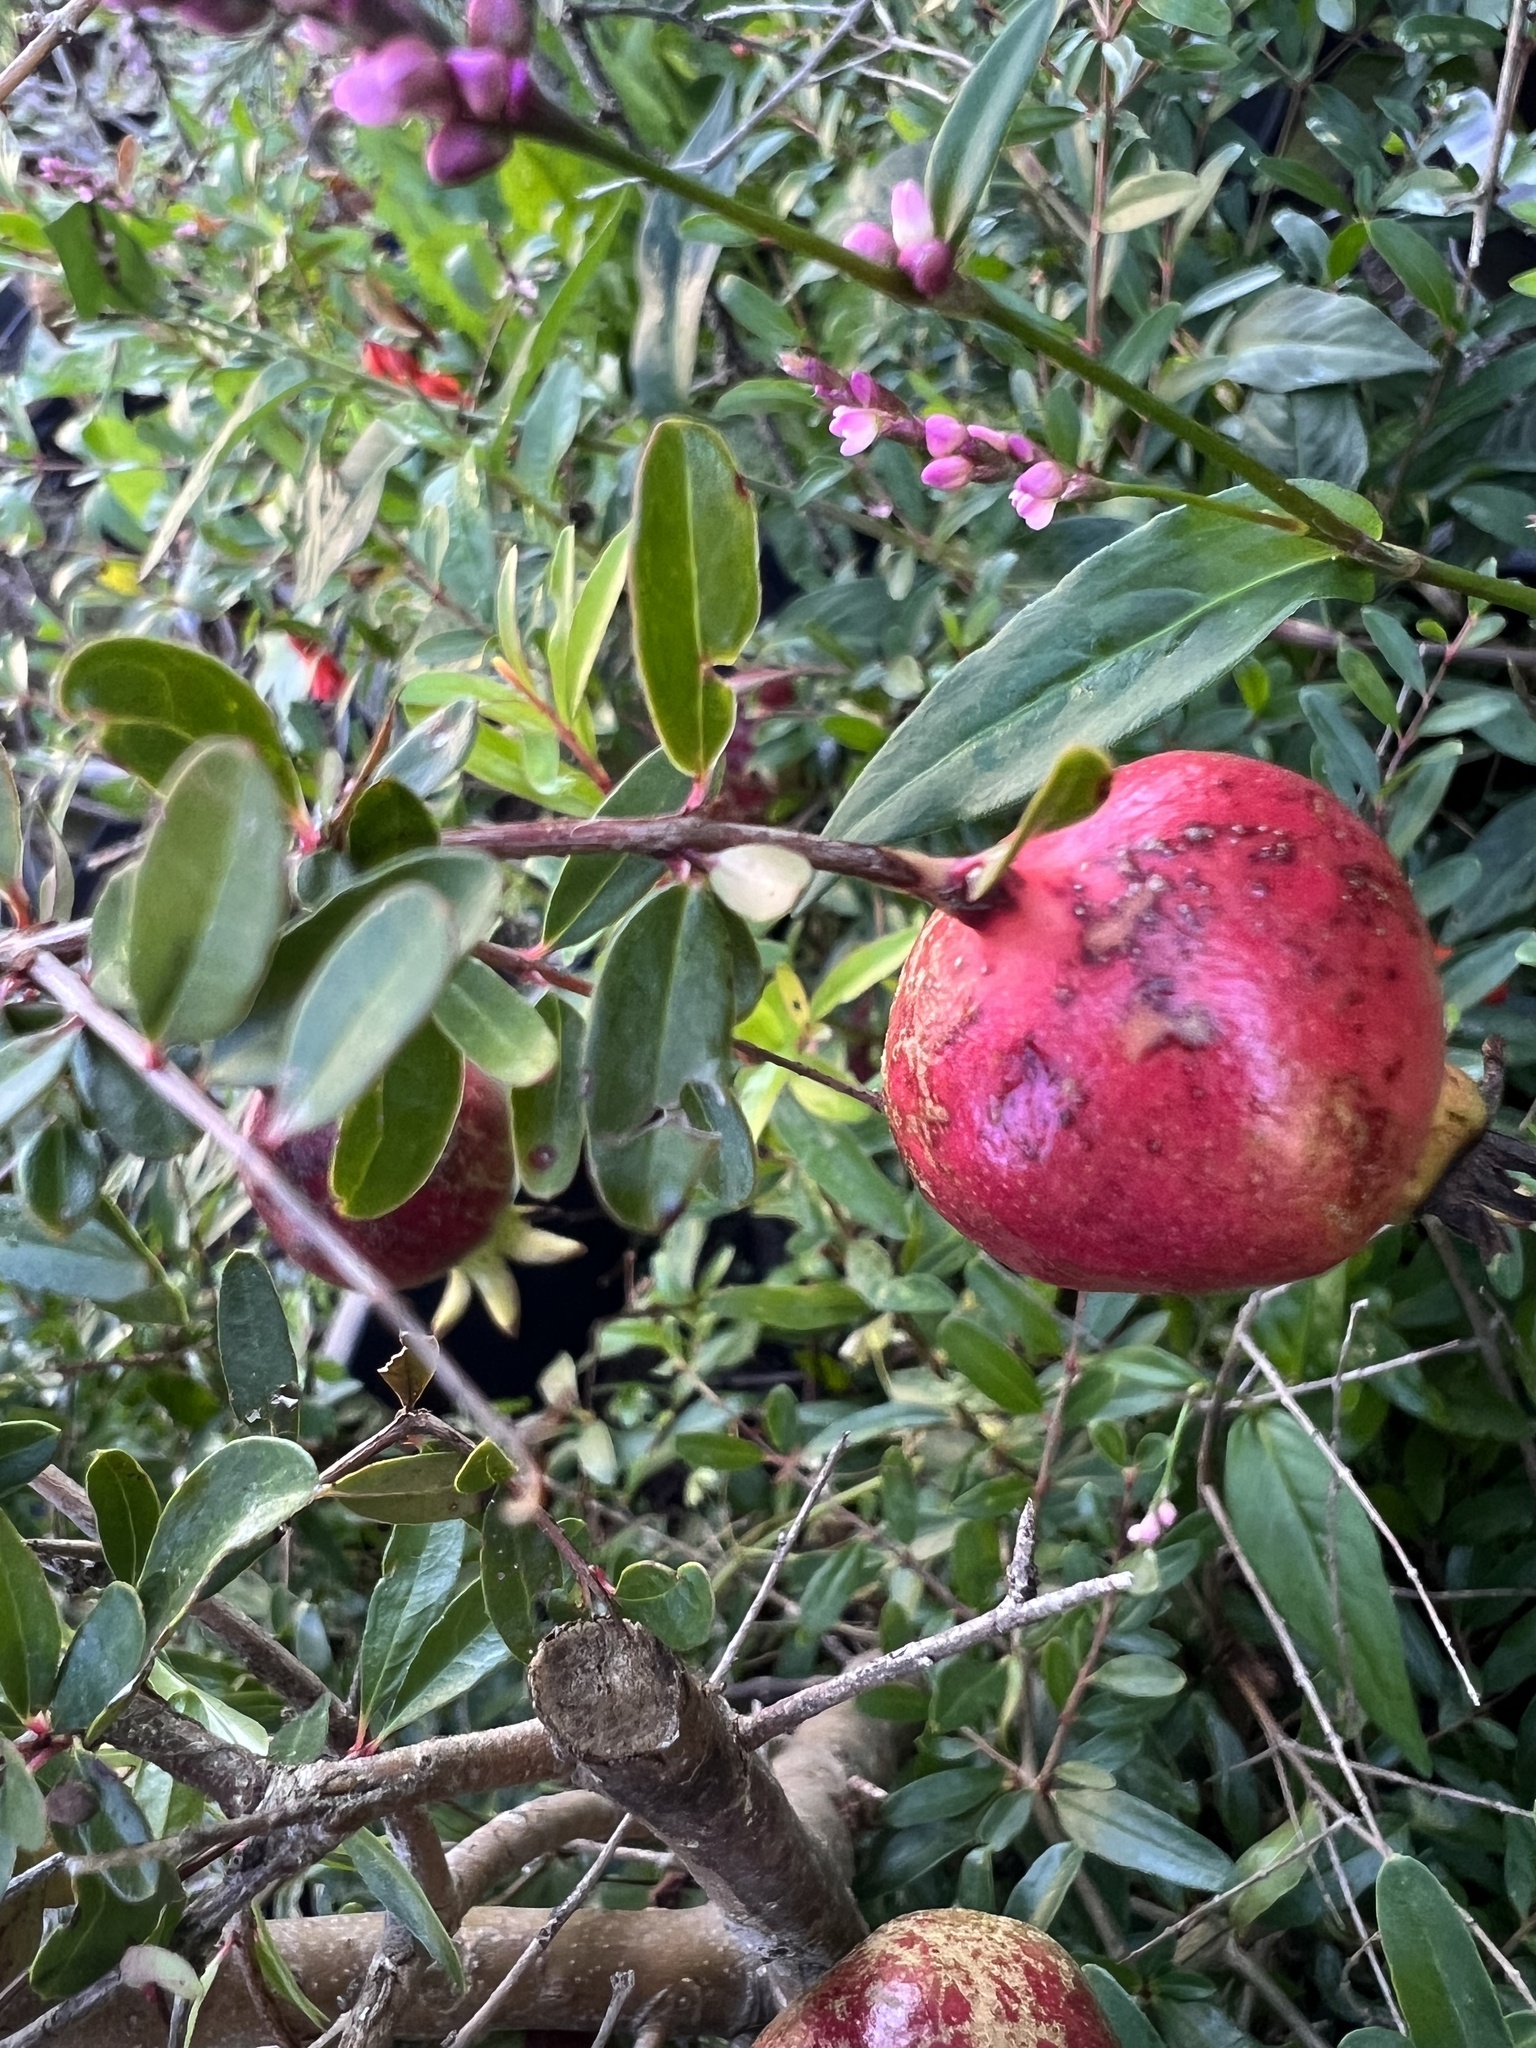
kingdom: Plantae
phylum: Tracheophyta
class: Magnoliopsida
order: Myrtales
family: Lythraceae
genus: Punica
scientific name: Punica granatum
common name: Pomegranate
